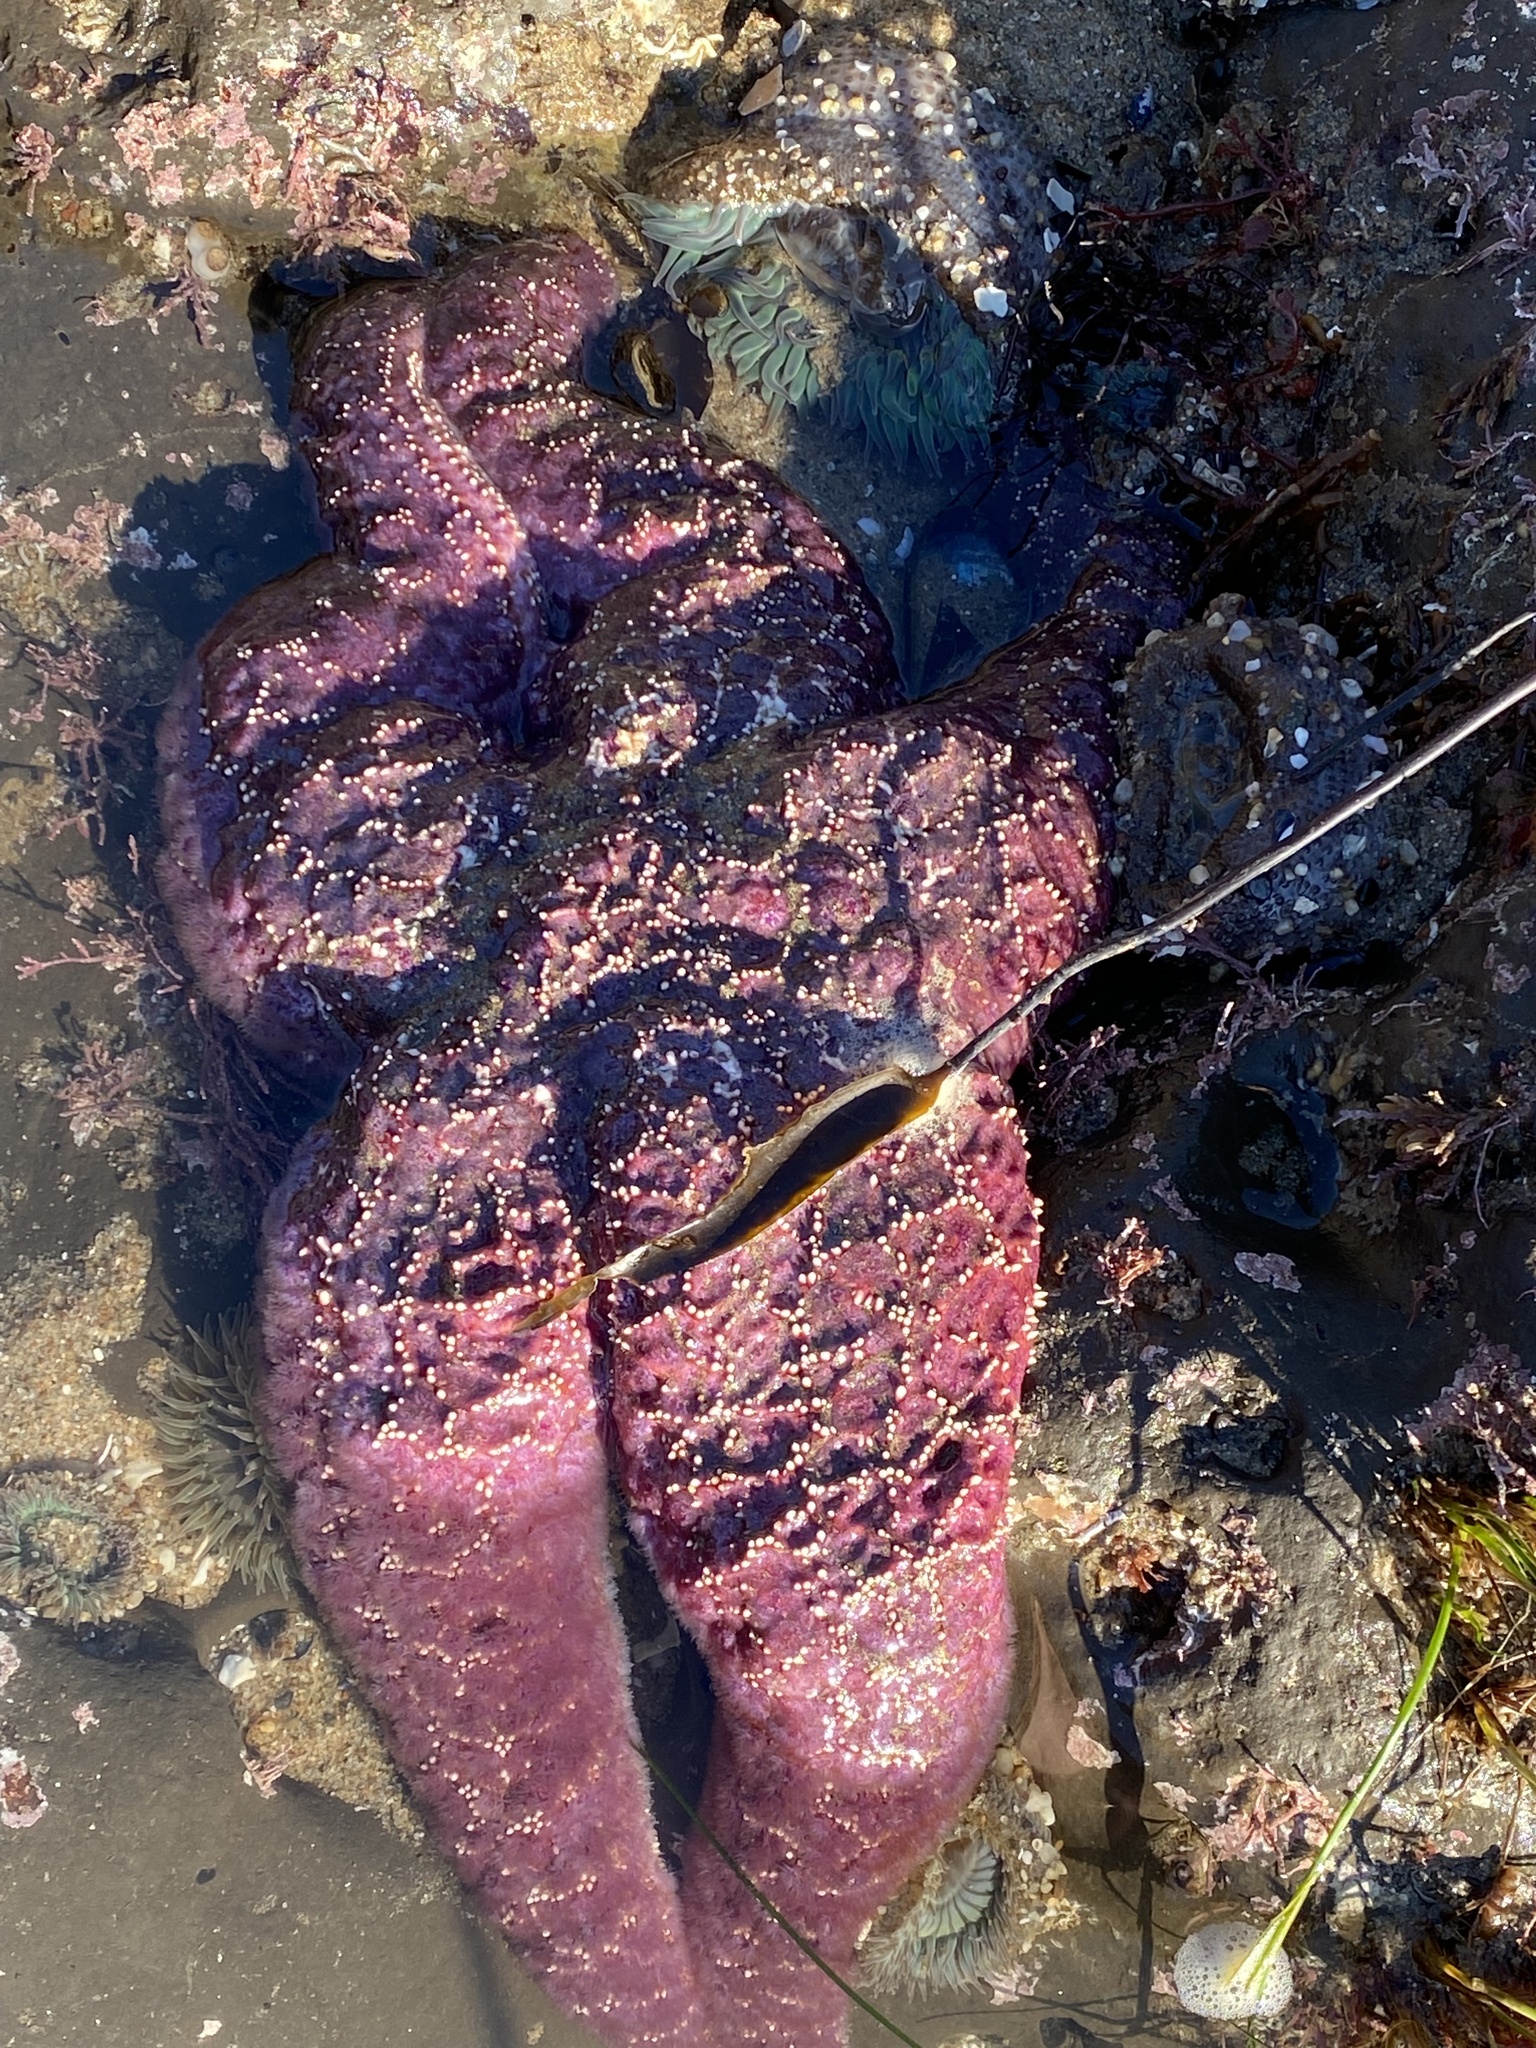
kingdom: Animalia
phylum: Echinodermata
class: Asteroidea
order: Forcipulatida
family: Asteriidae
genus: Pisaster
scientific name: Pisaster ochraceus
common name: Ochre stars
